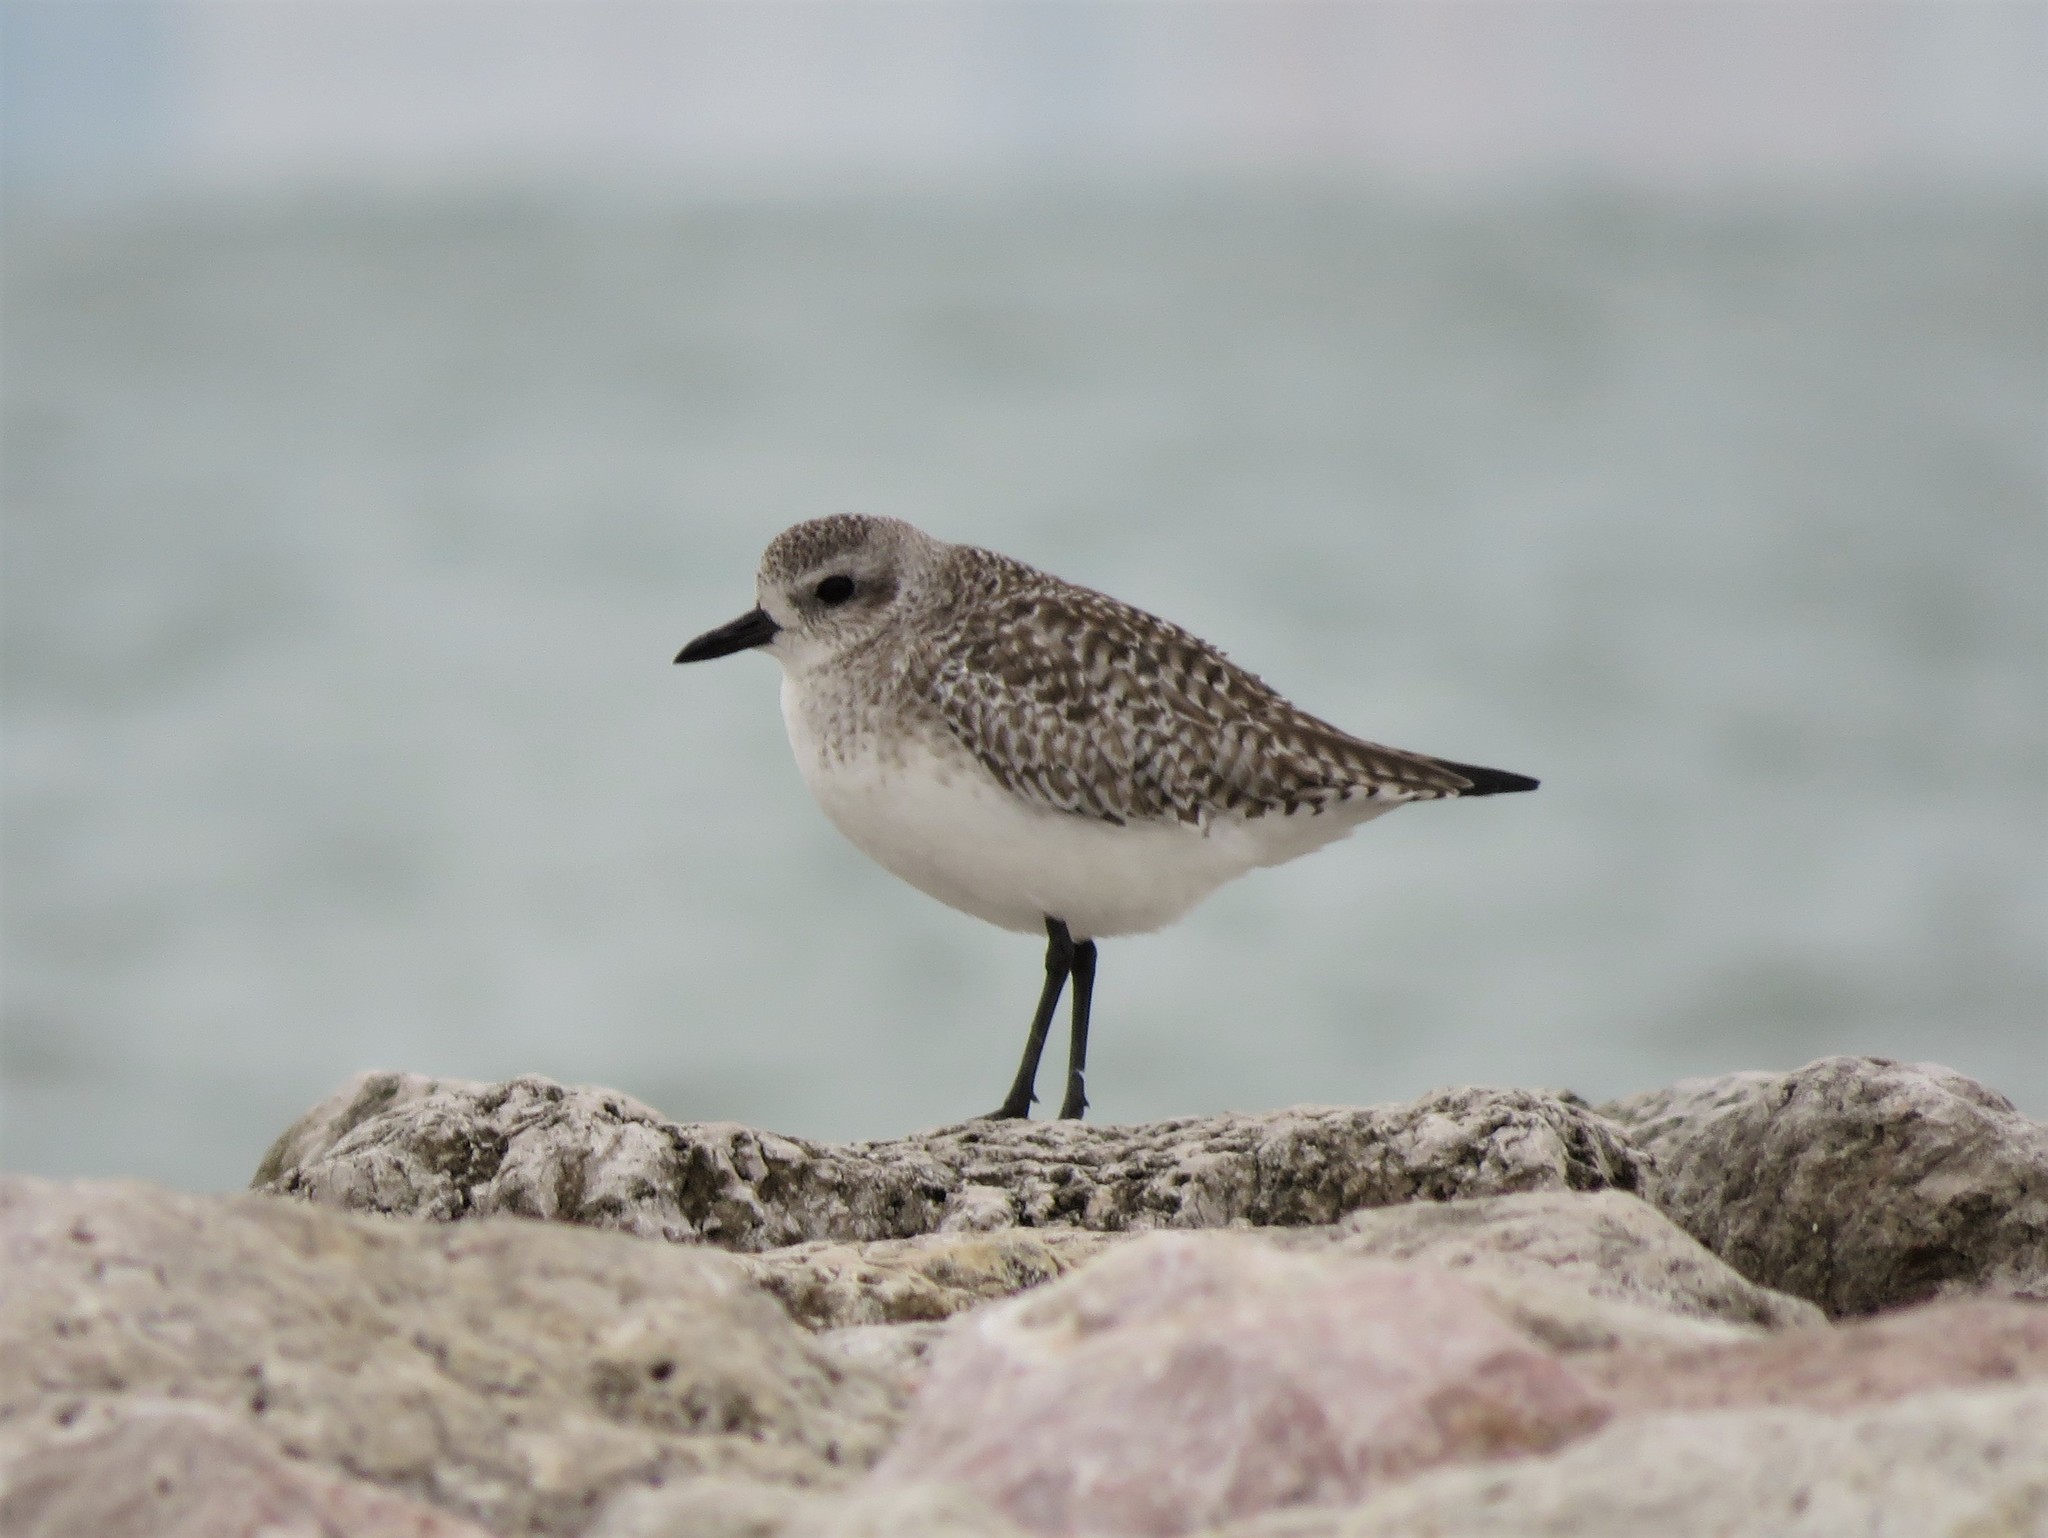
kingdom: Animalia
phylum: Chordata
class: Aves
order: Charadriiformes
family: Charadriidae
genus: Pluvialis
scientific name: Pluvialis squatarola
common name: Grey plover
